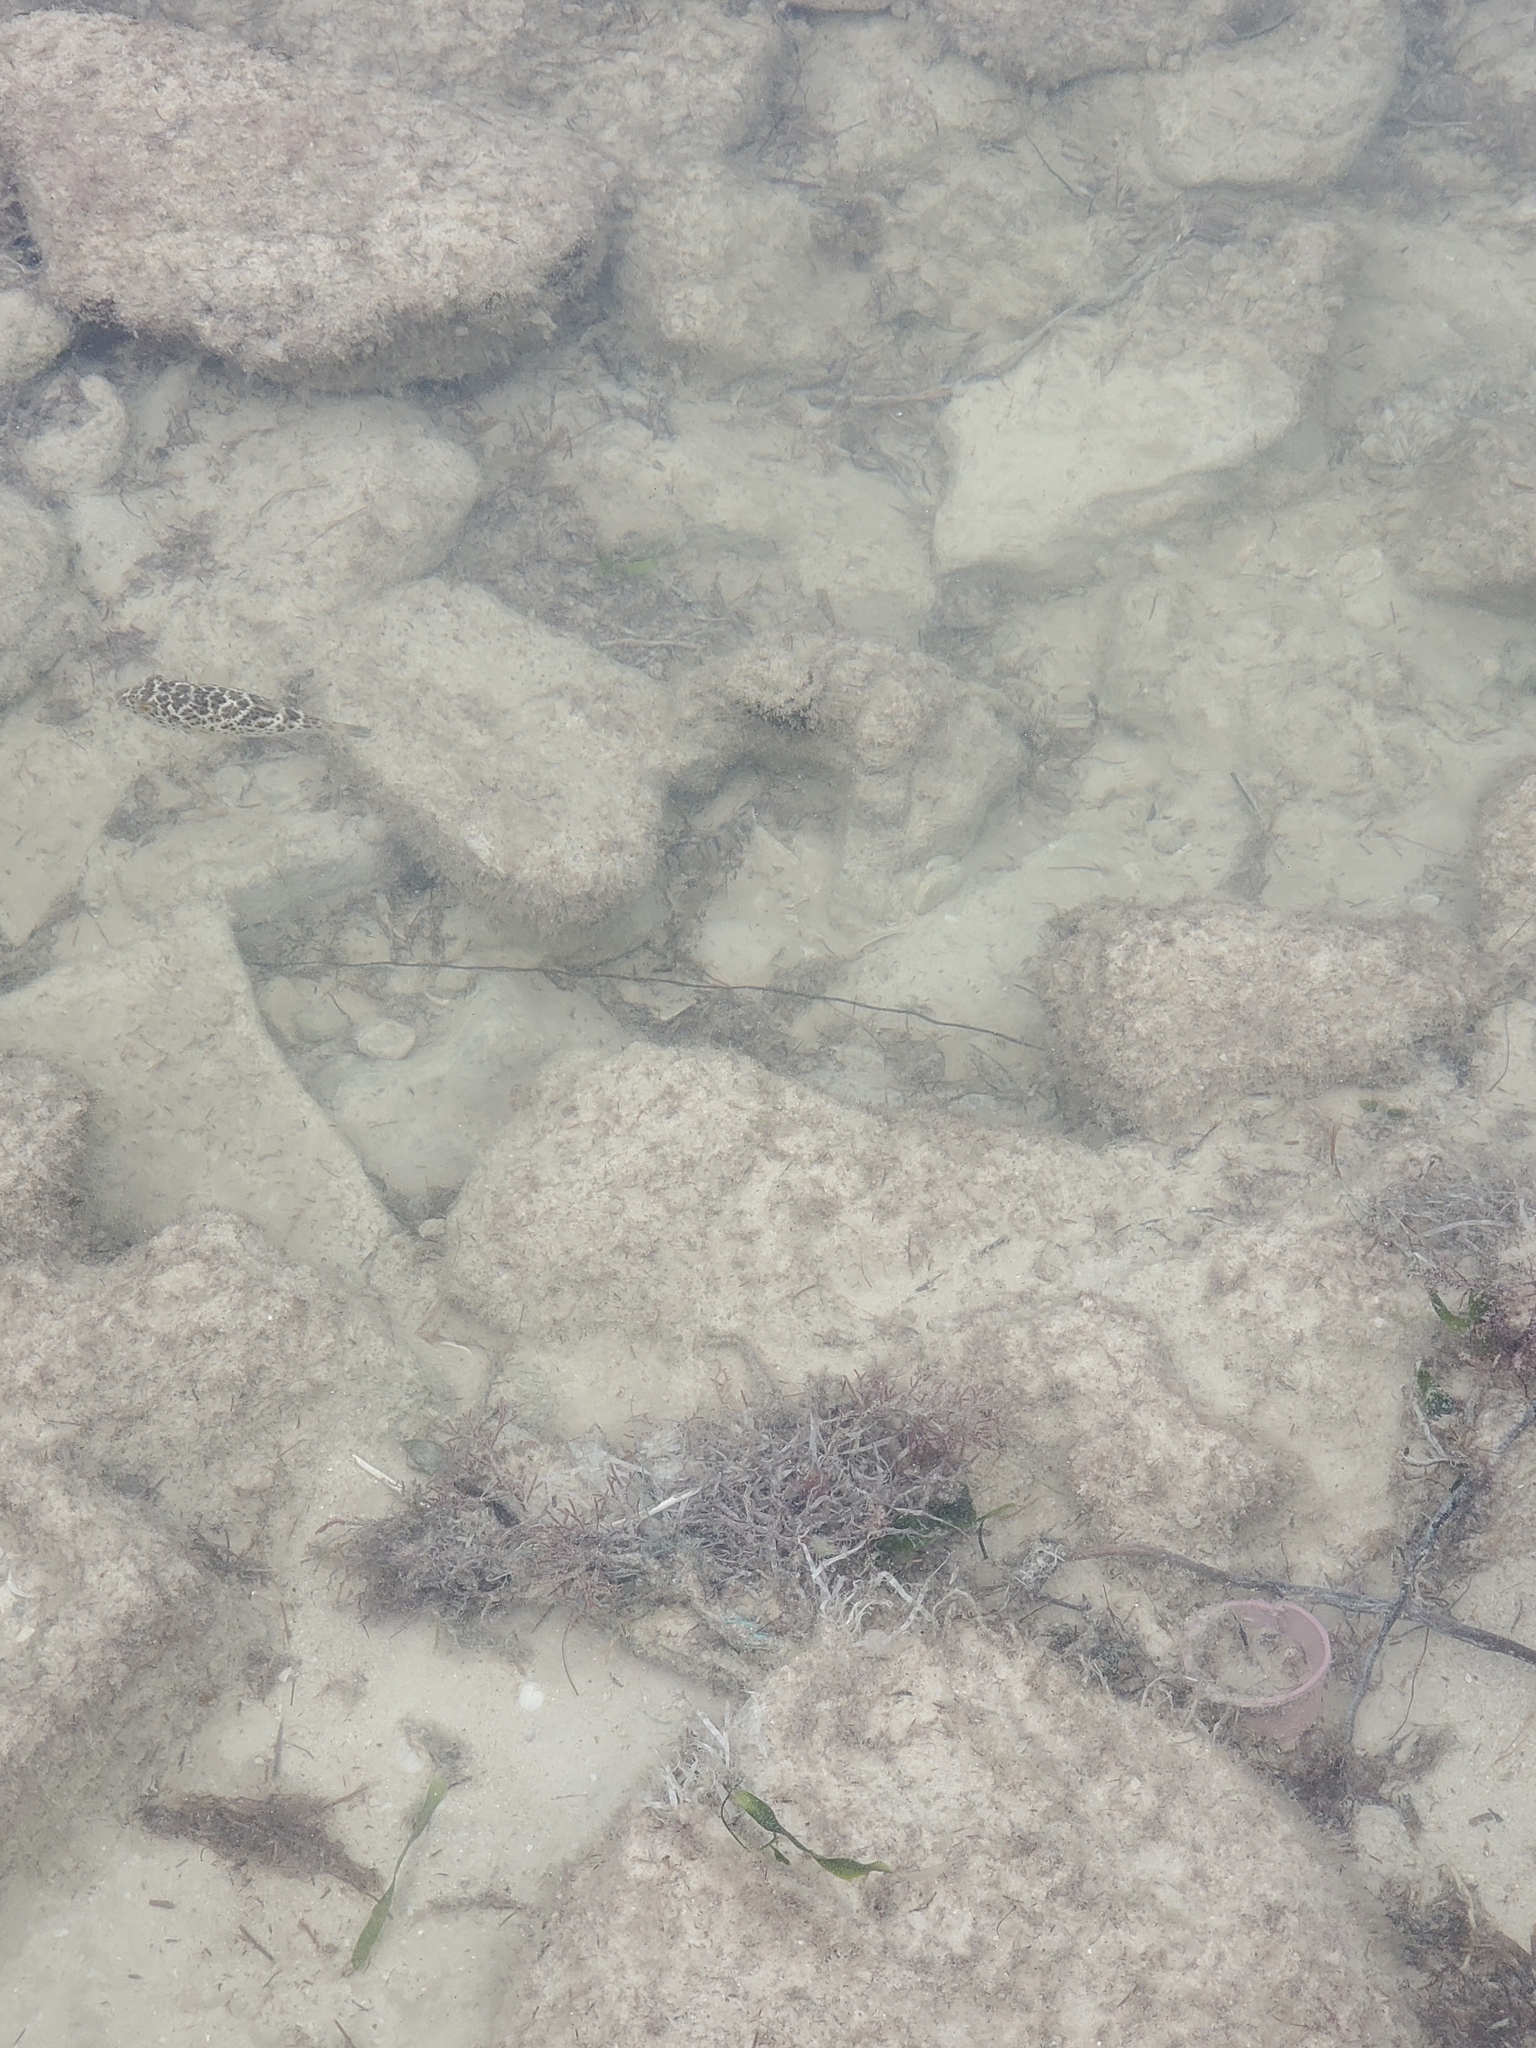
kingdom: Animalia
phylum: Chordata
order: Tetraodontiformes
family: Tetraodontidae
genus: Sphoeroides
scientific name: Sphoeroides testudineus
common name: Checkered puffer
